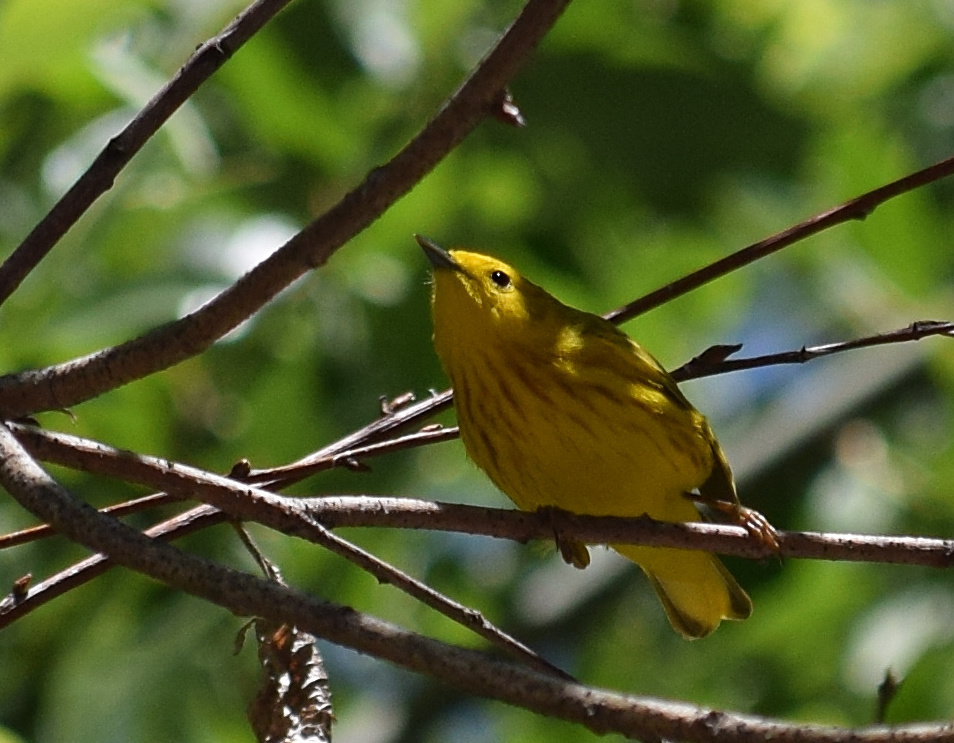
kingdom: Animalia
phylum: Chordata
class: Aves
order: Passeriformes
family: Parulidae
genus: Setophaga
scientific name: Setophaga petechia
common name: Yellow warbler
